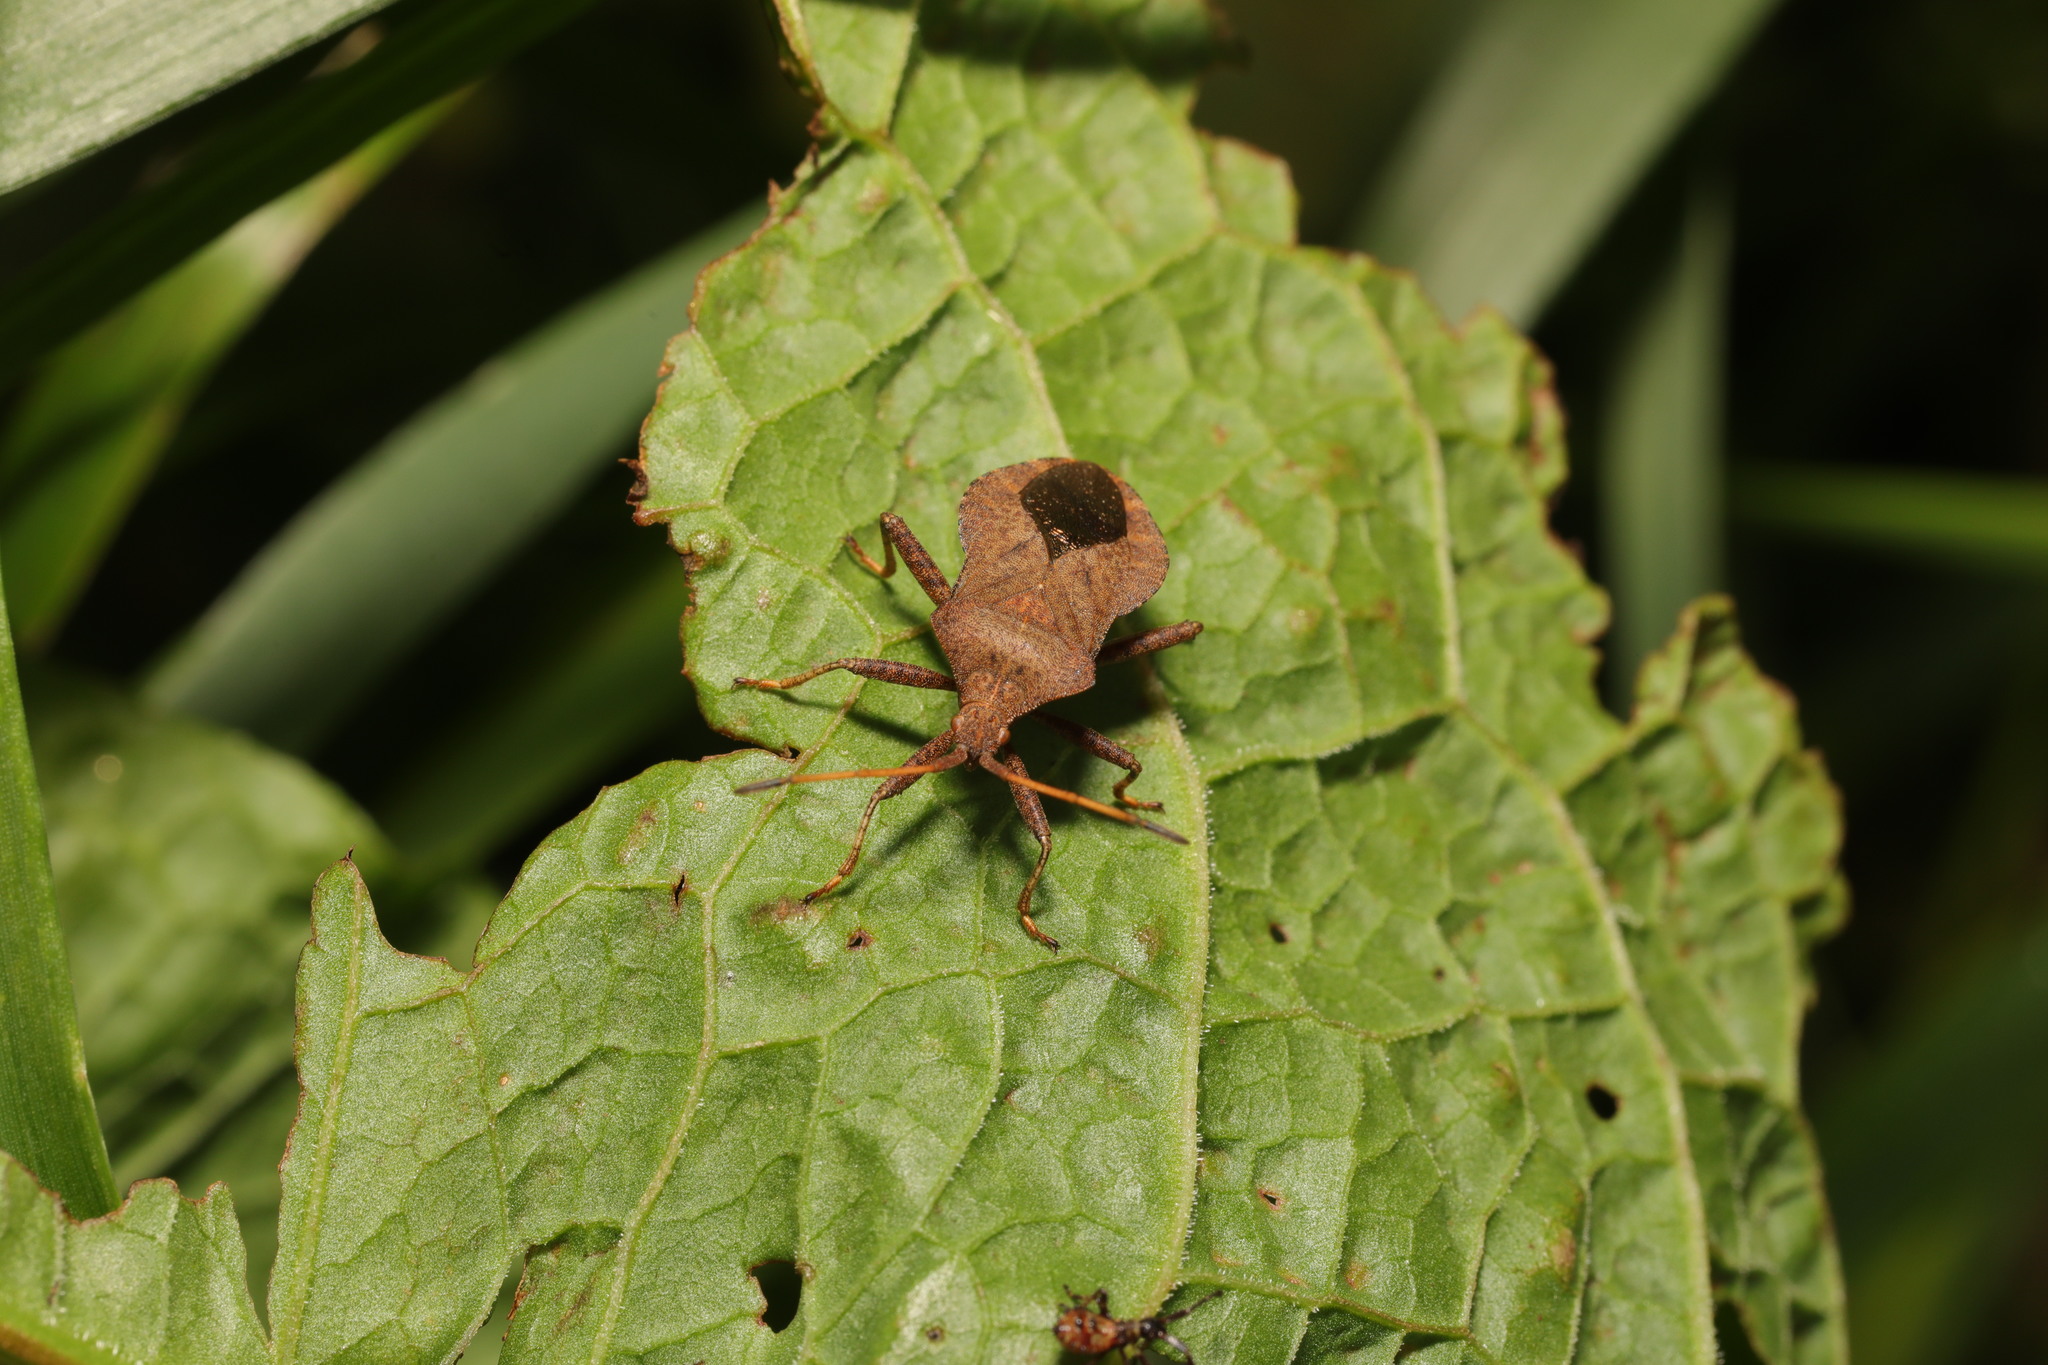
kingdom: Animalia
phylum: Arthropoda
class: Insecta
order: Hemiptera
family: Coreidae
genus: Coreus
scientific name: Coreus marginatus
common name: Dock bug
